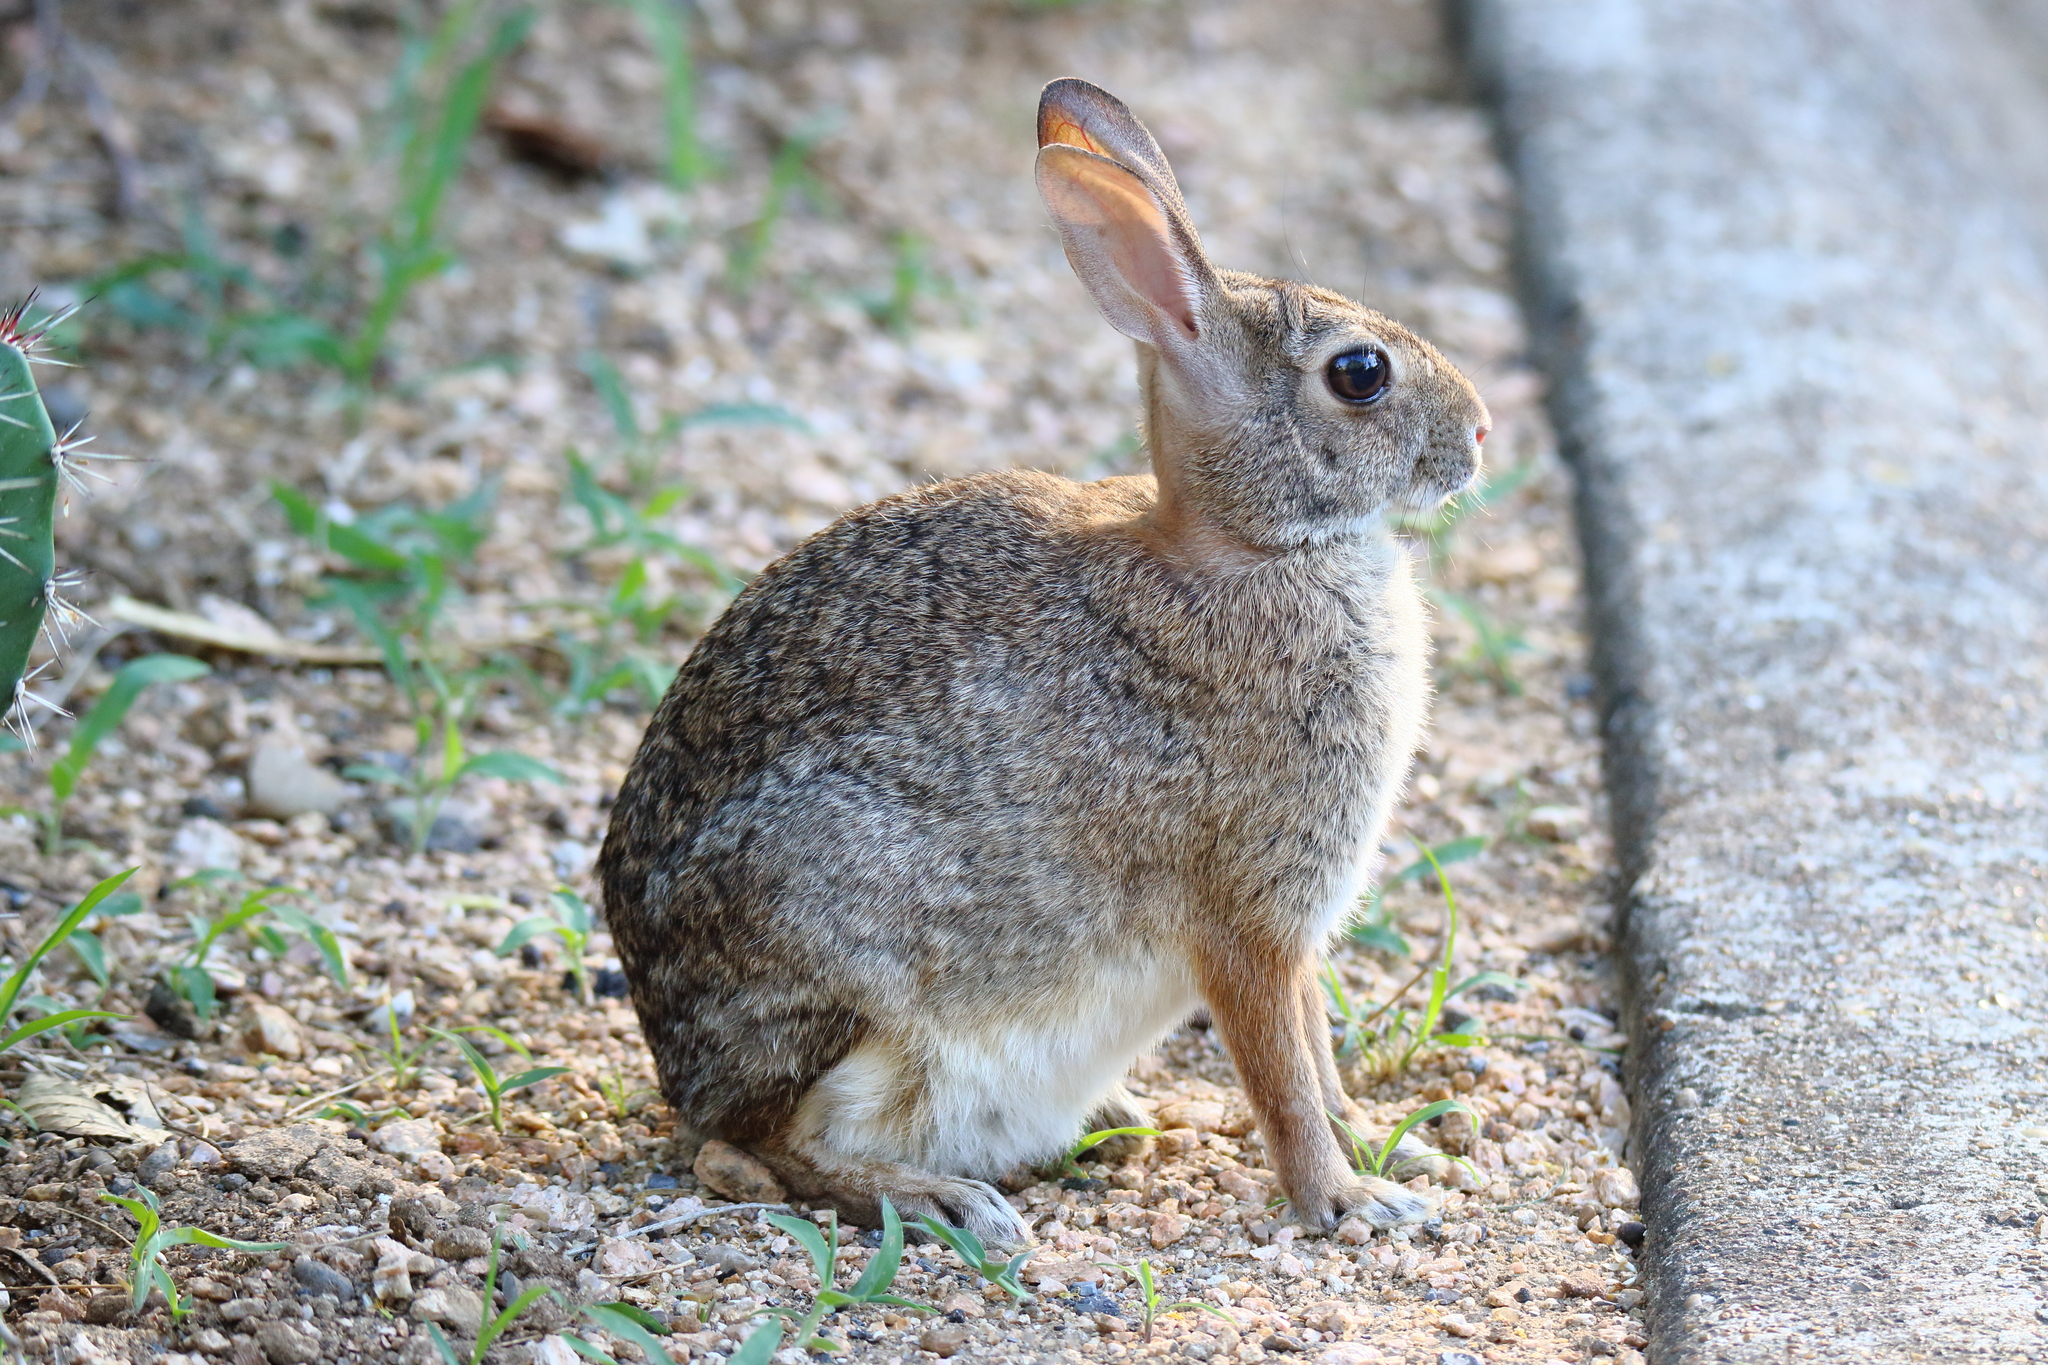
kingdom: Animalia
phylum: Chordata
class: Mammalia
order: Lagomorpha
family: Leporidae
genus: Sylvilagus
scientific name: Sylvilagus floridanus
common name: Eastern cottontail
